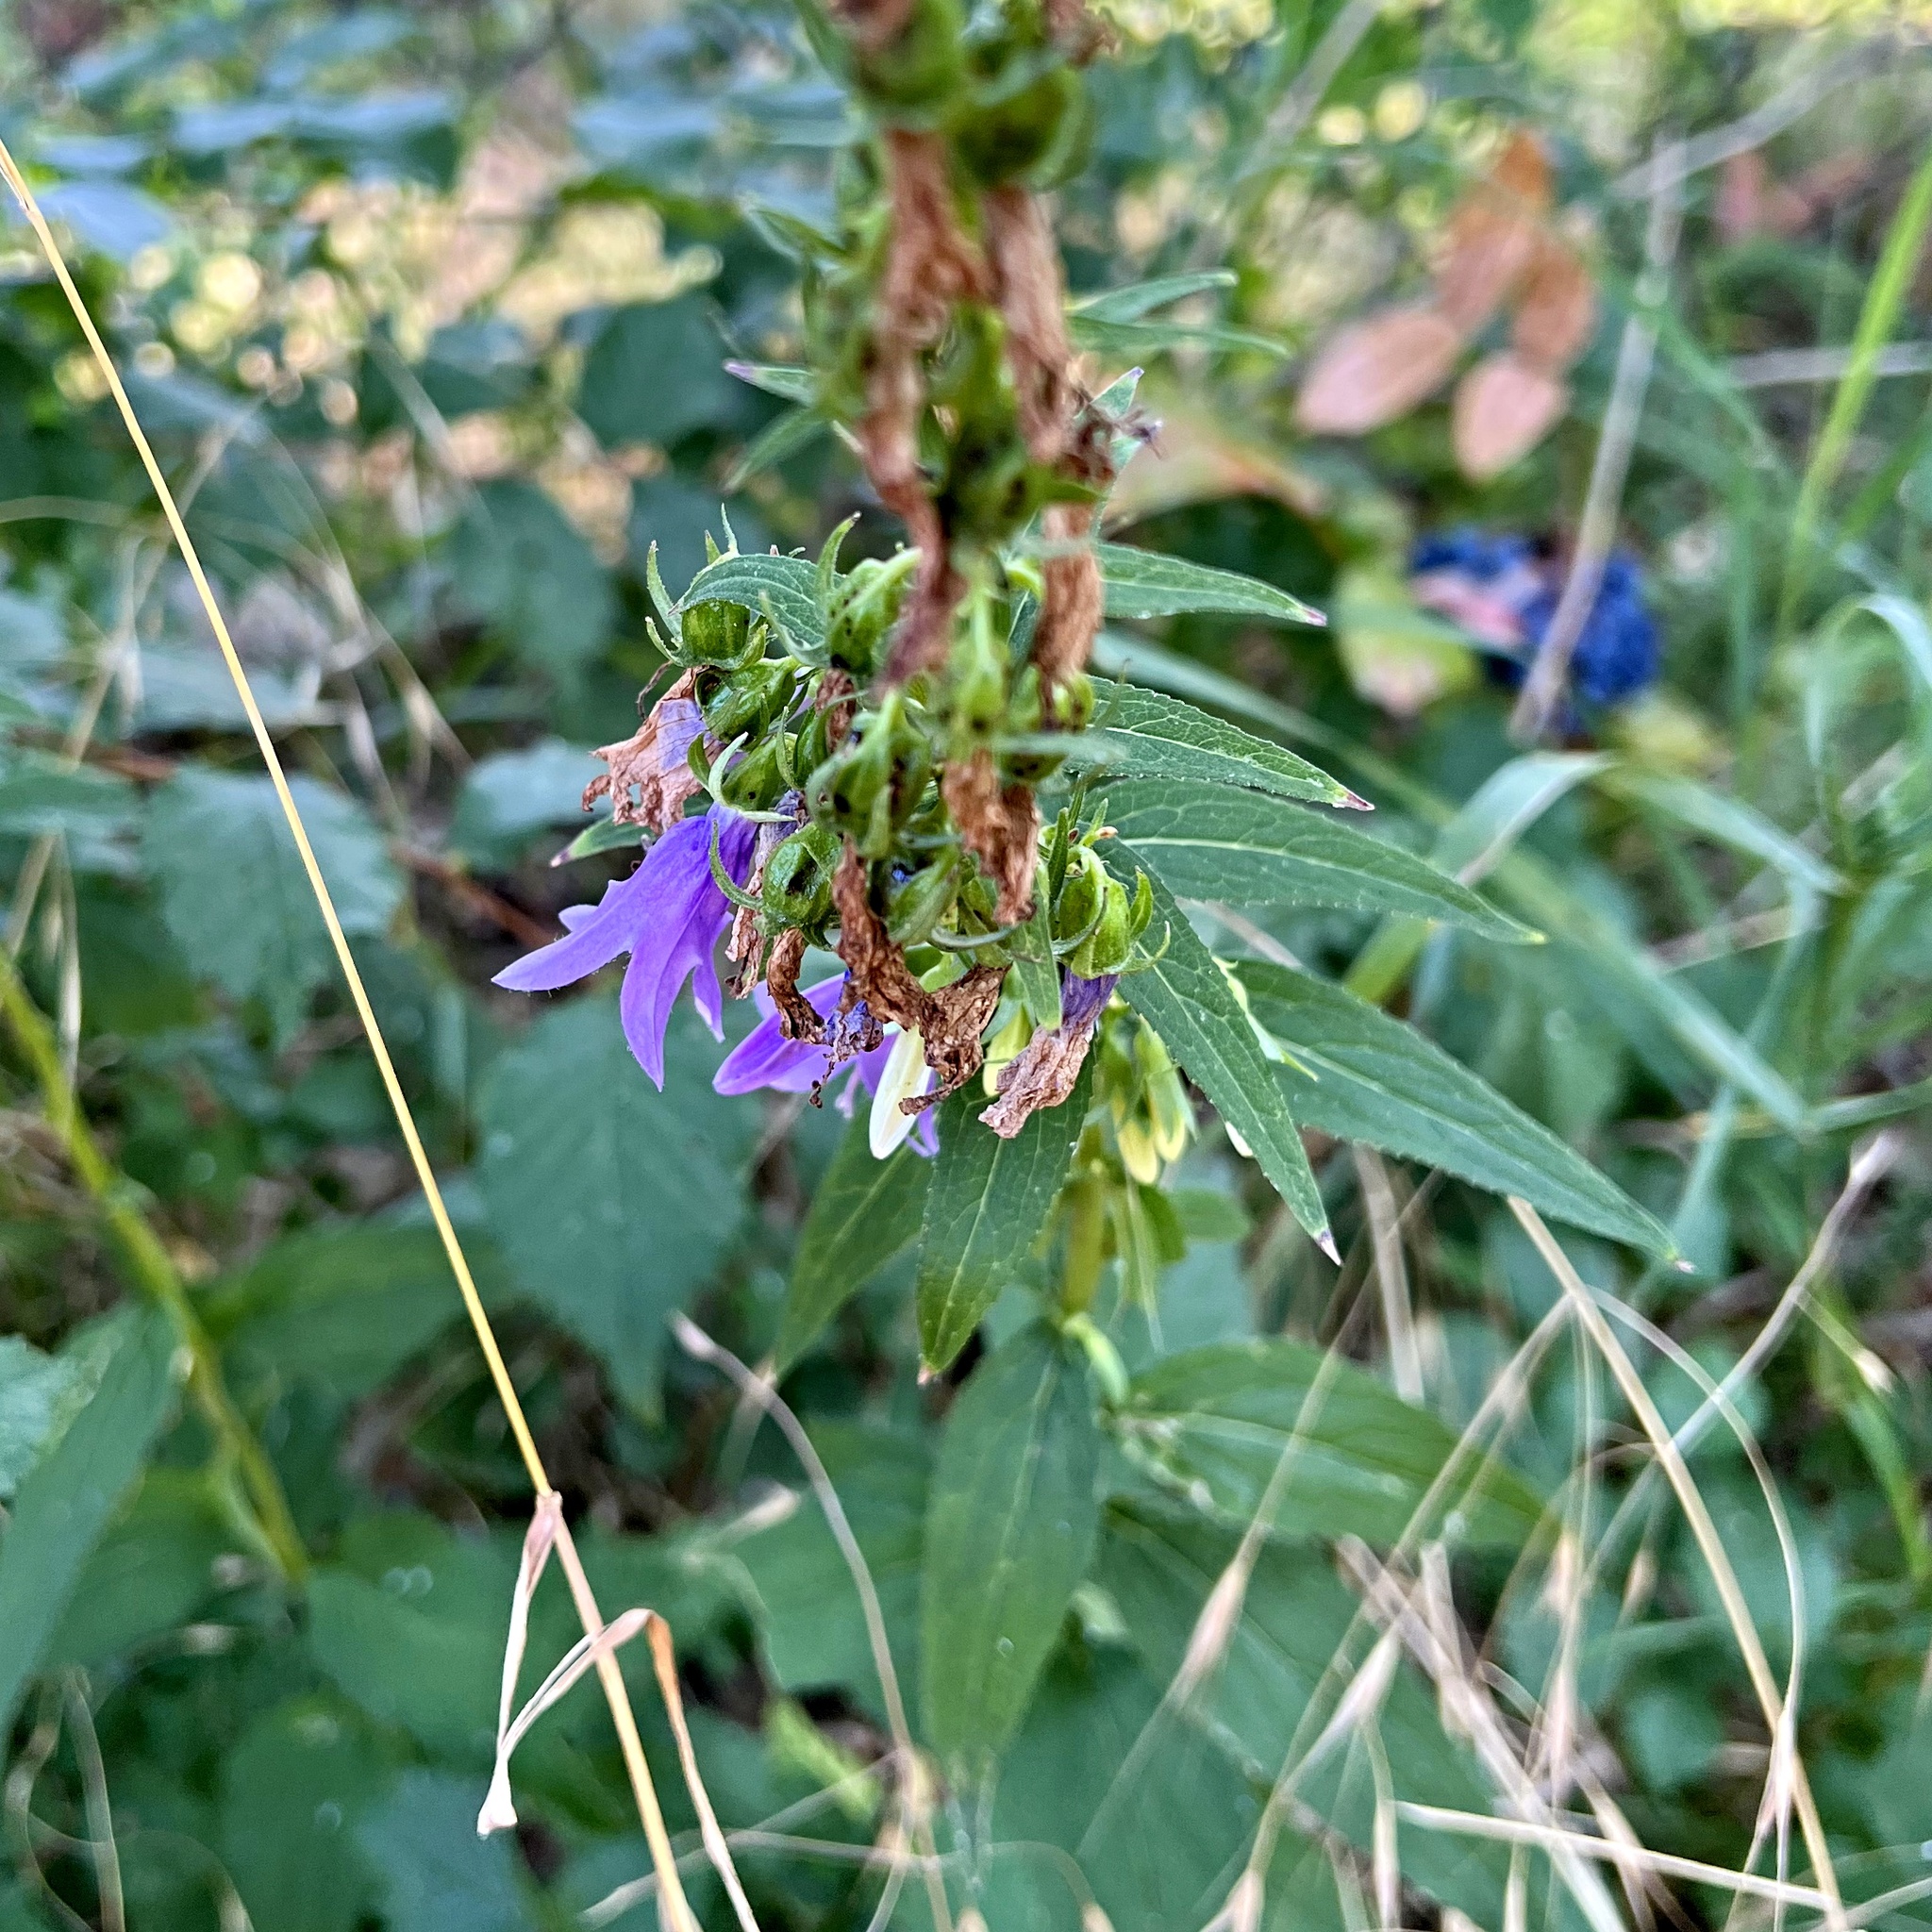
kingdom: Plantae
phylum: Tracheophyta
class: Magnoliopsida
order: Asterales
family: Campanulaceae
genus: Campanula
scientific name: Campanula rapunculoides
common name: Creeping bellflower
